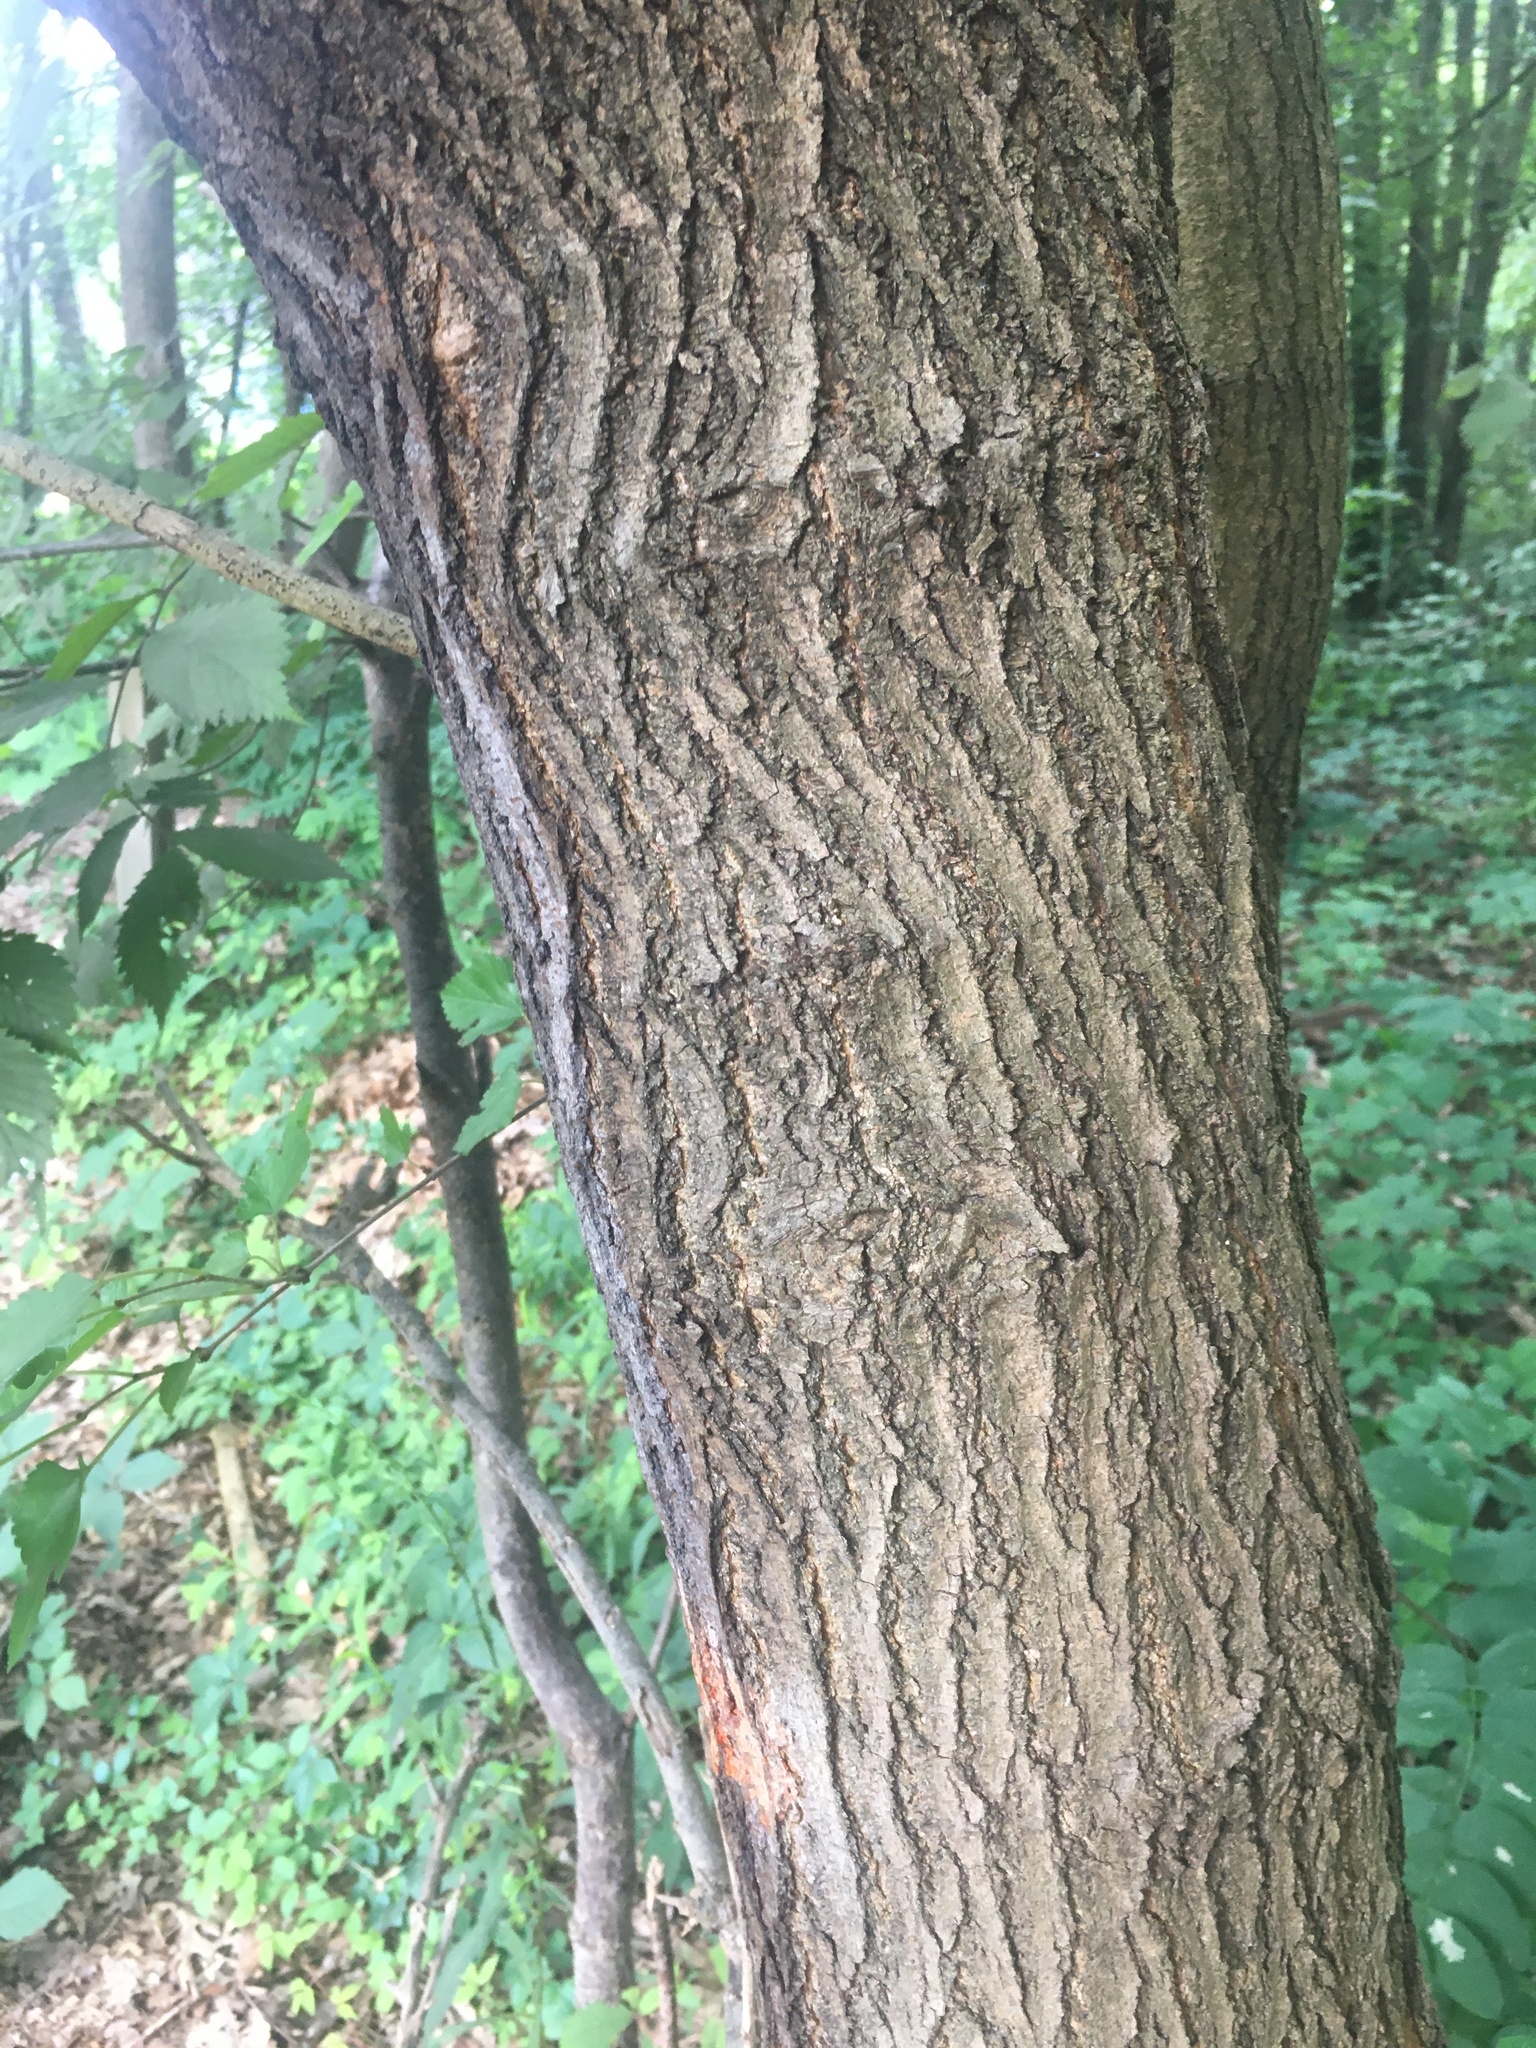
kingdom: Plantae
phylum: Tracheophyta
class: Magnoliopsida
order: Rosales
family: Moraceae
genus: Morus
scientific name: Morus alba
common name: White mulberry
